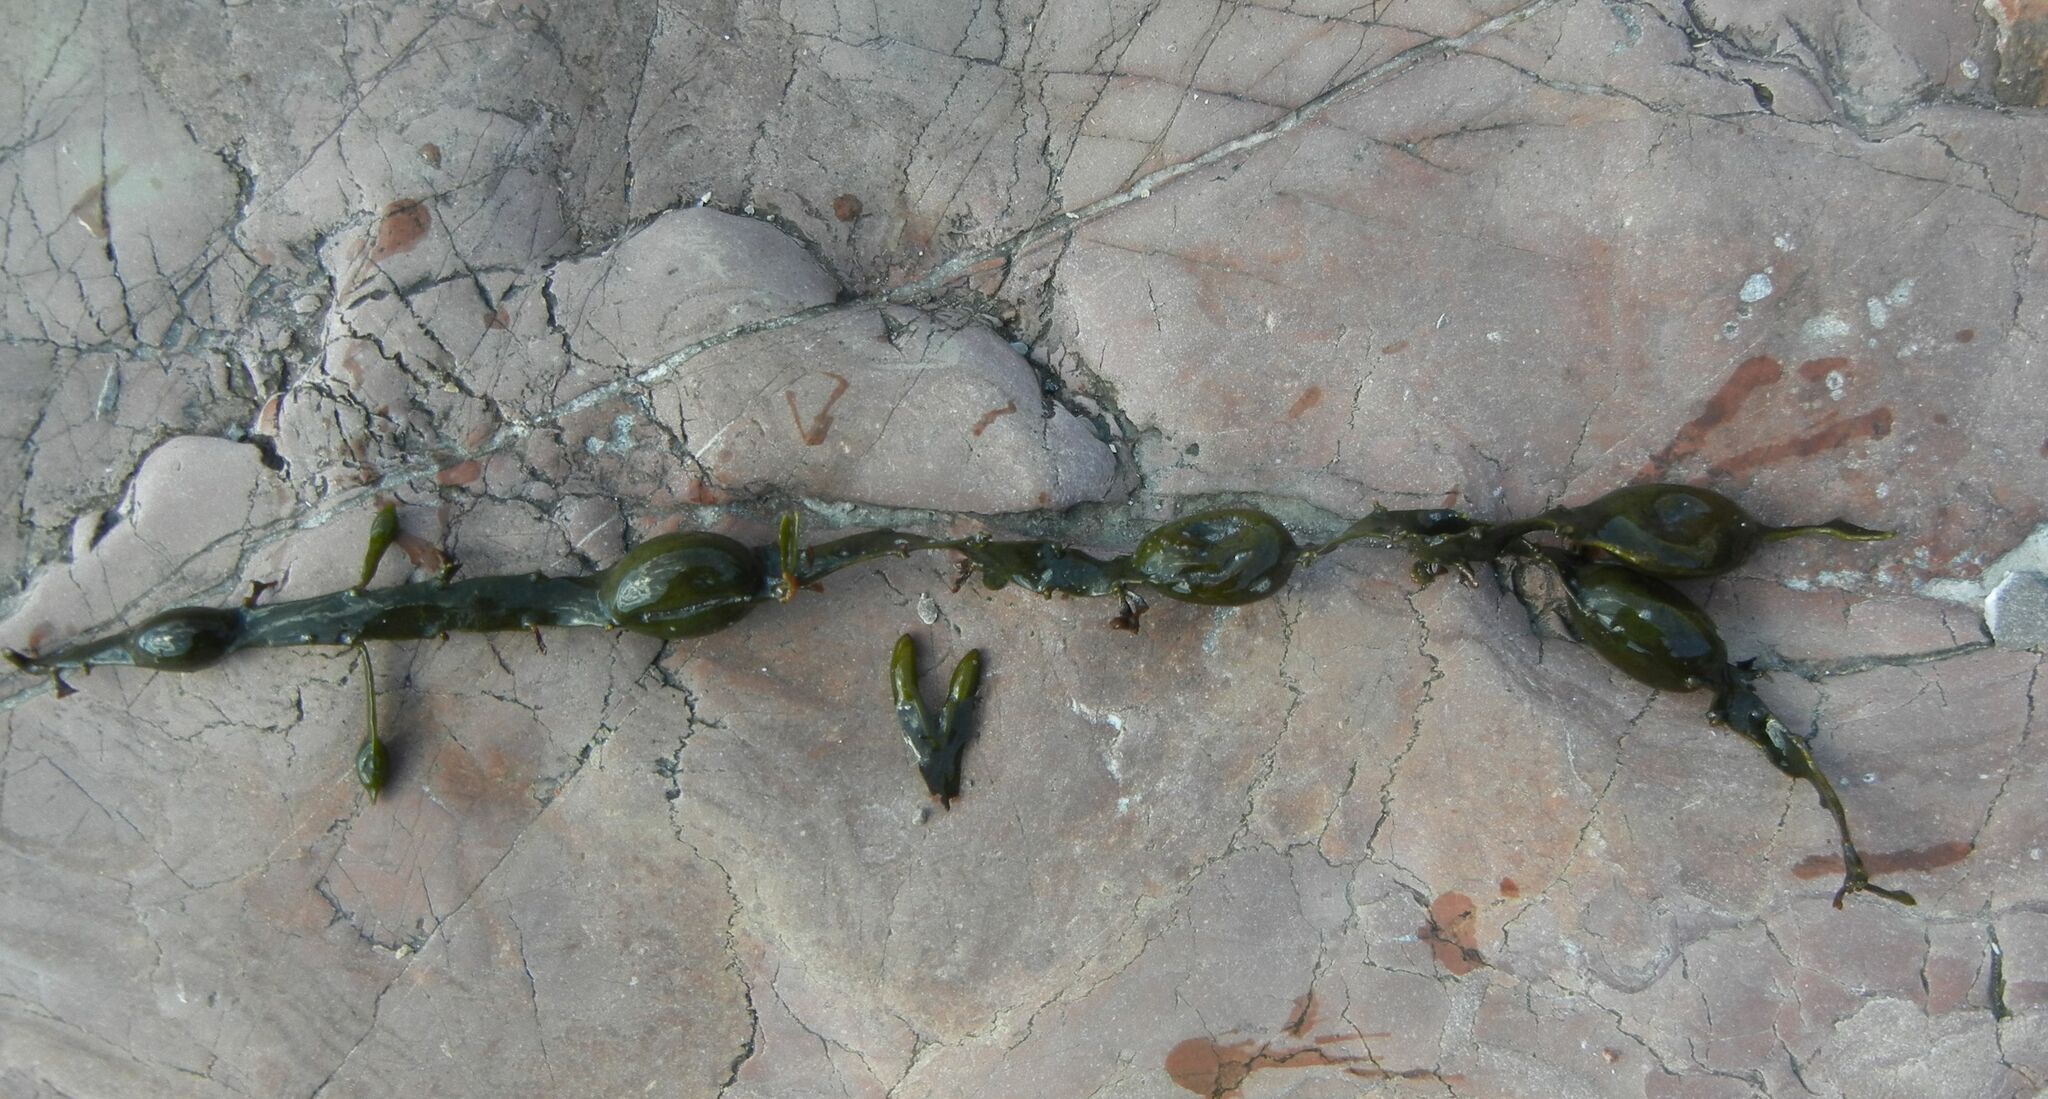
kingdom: Chromista
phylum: Ochrophyta
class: Phaeophyceae
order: Fucales
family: Fucaceae
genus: Ascophyllum
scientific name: Ascophyllum nodosum
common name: Knotted wrack
